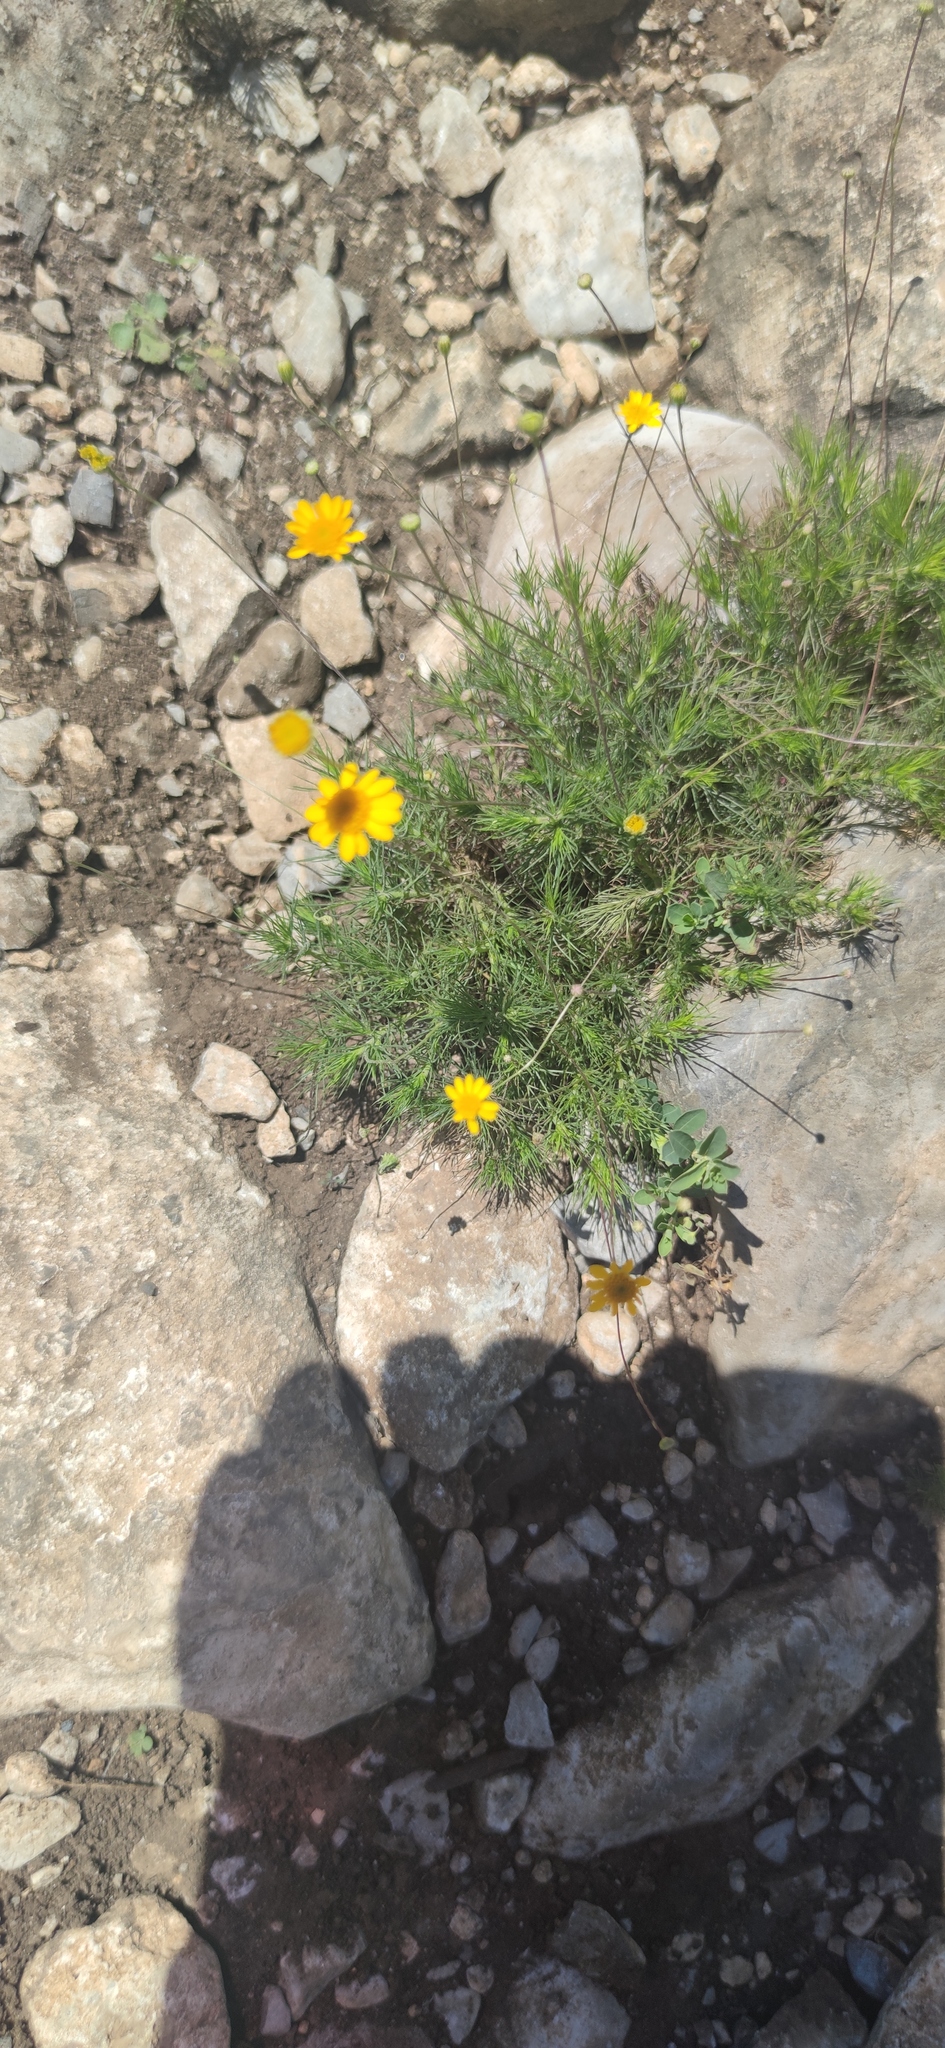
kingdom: Plantae
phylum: Tracheophyta
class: Magnoliopsida
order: Asterales
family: Asteraceae
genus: Thymophylla
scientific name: Thymophylla pentachaeta
